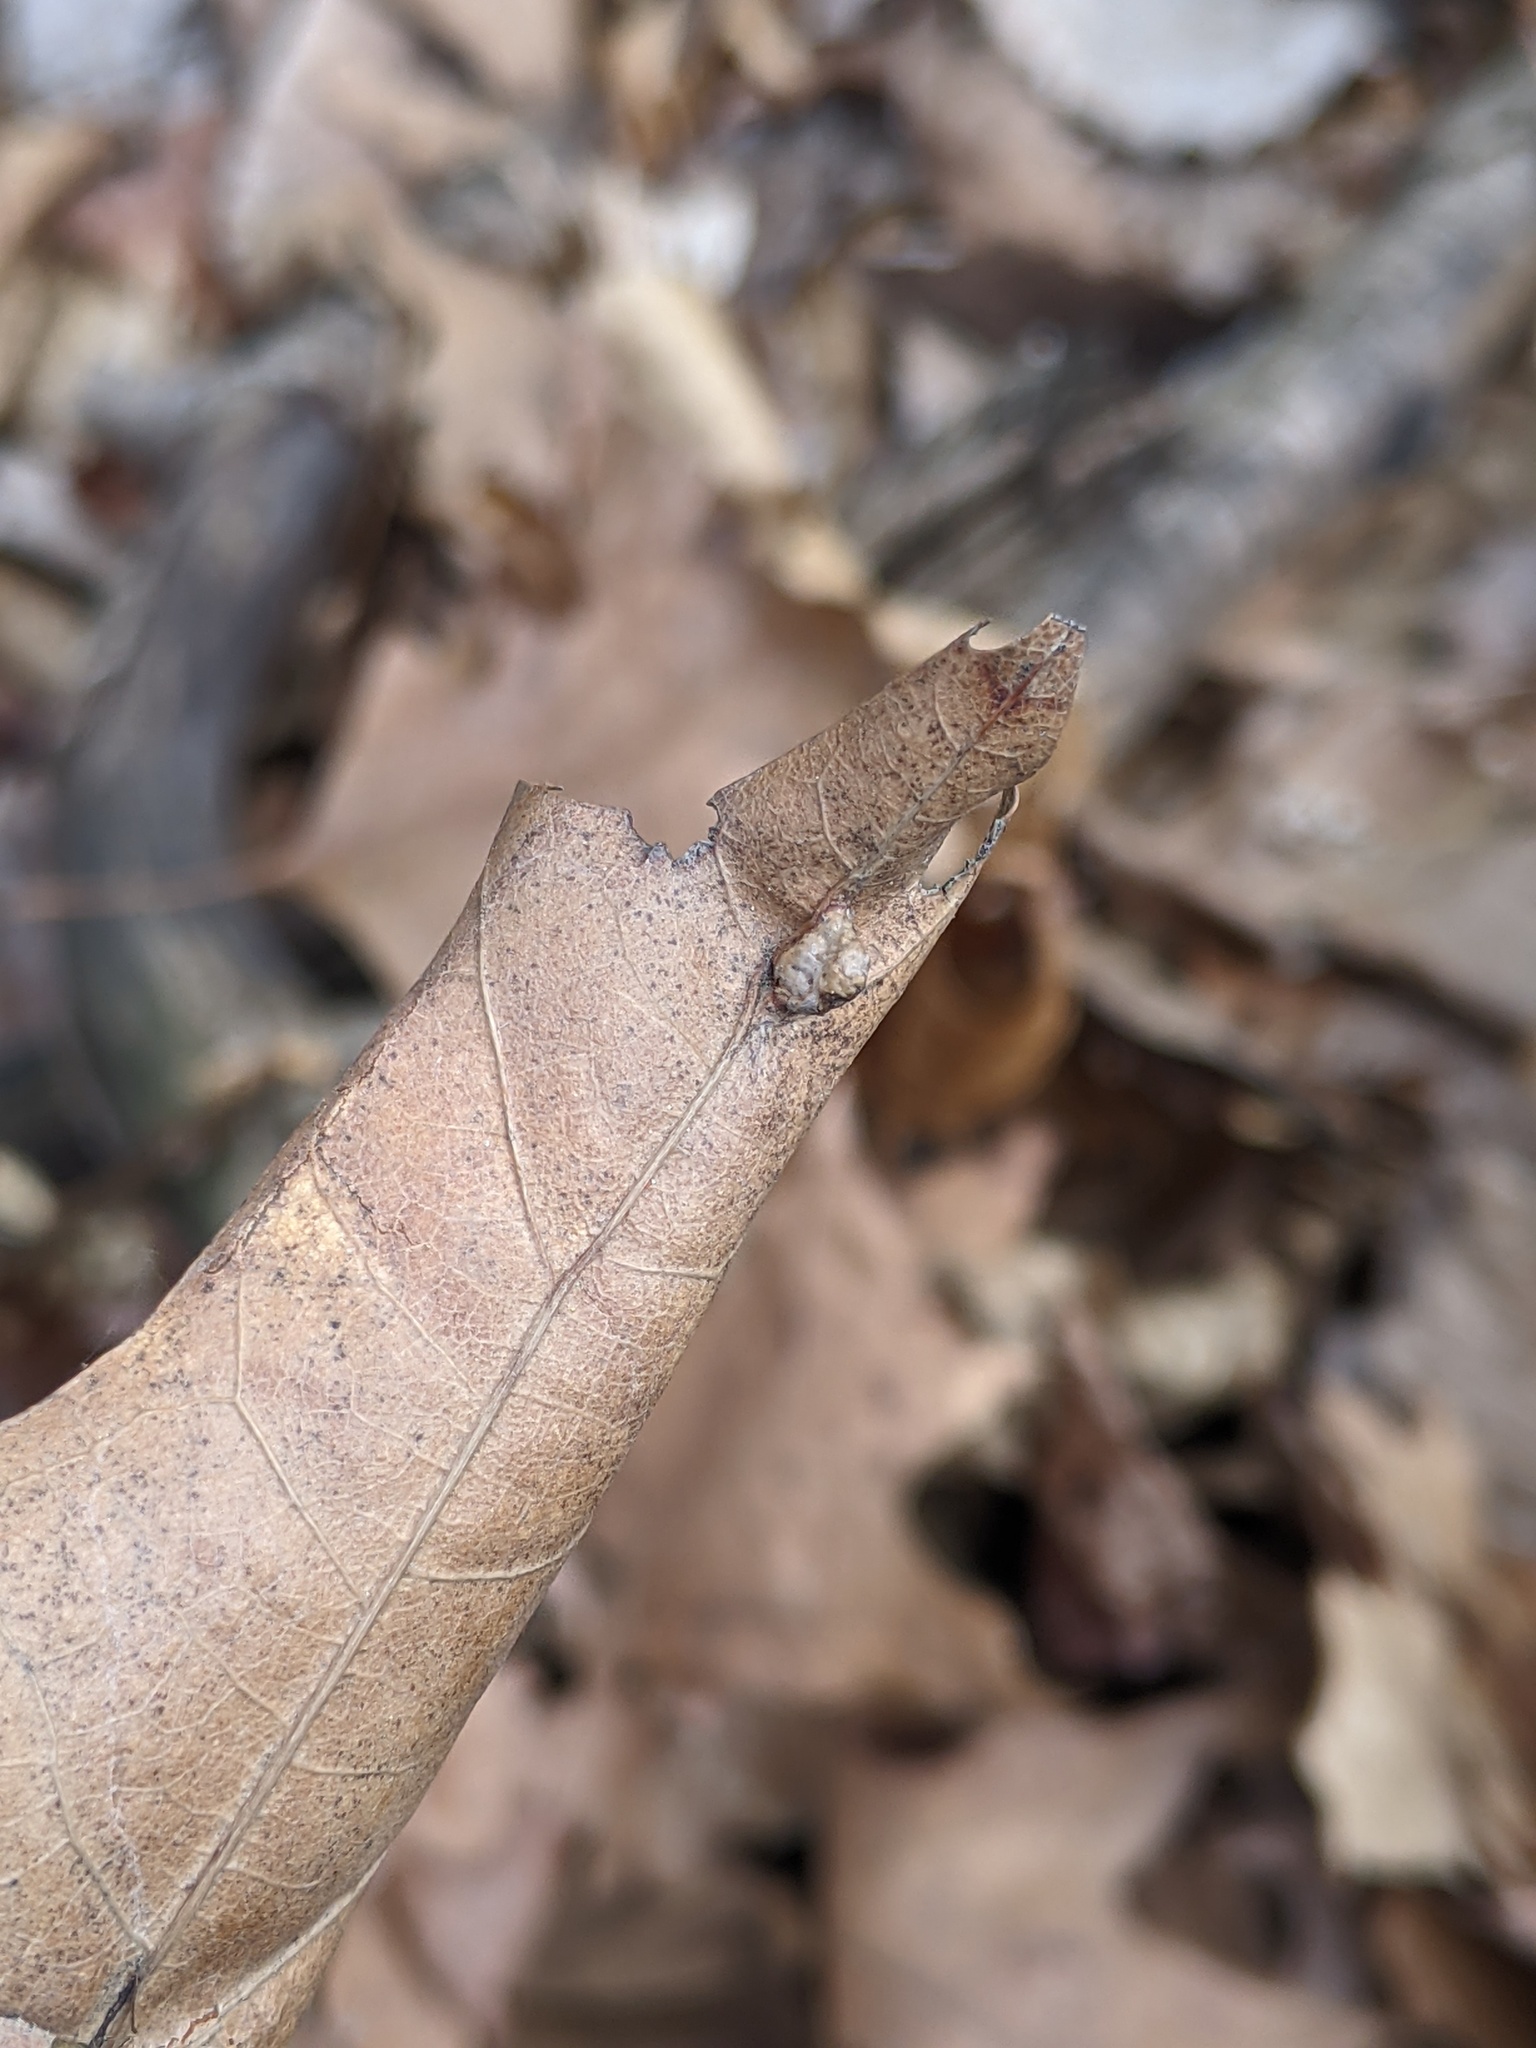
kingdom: Animalia
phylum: Arthropoda
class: Insecta
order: Diptera
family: Cecidomyiidae
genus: Macrodiplosis
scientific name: Macrodiplosis majalis
